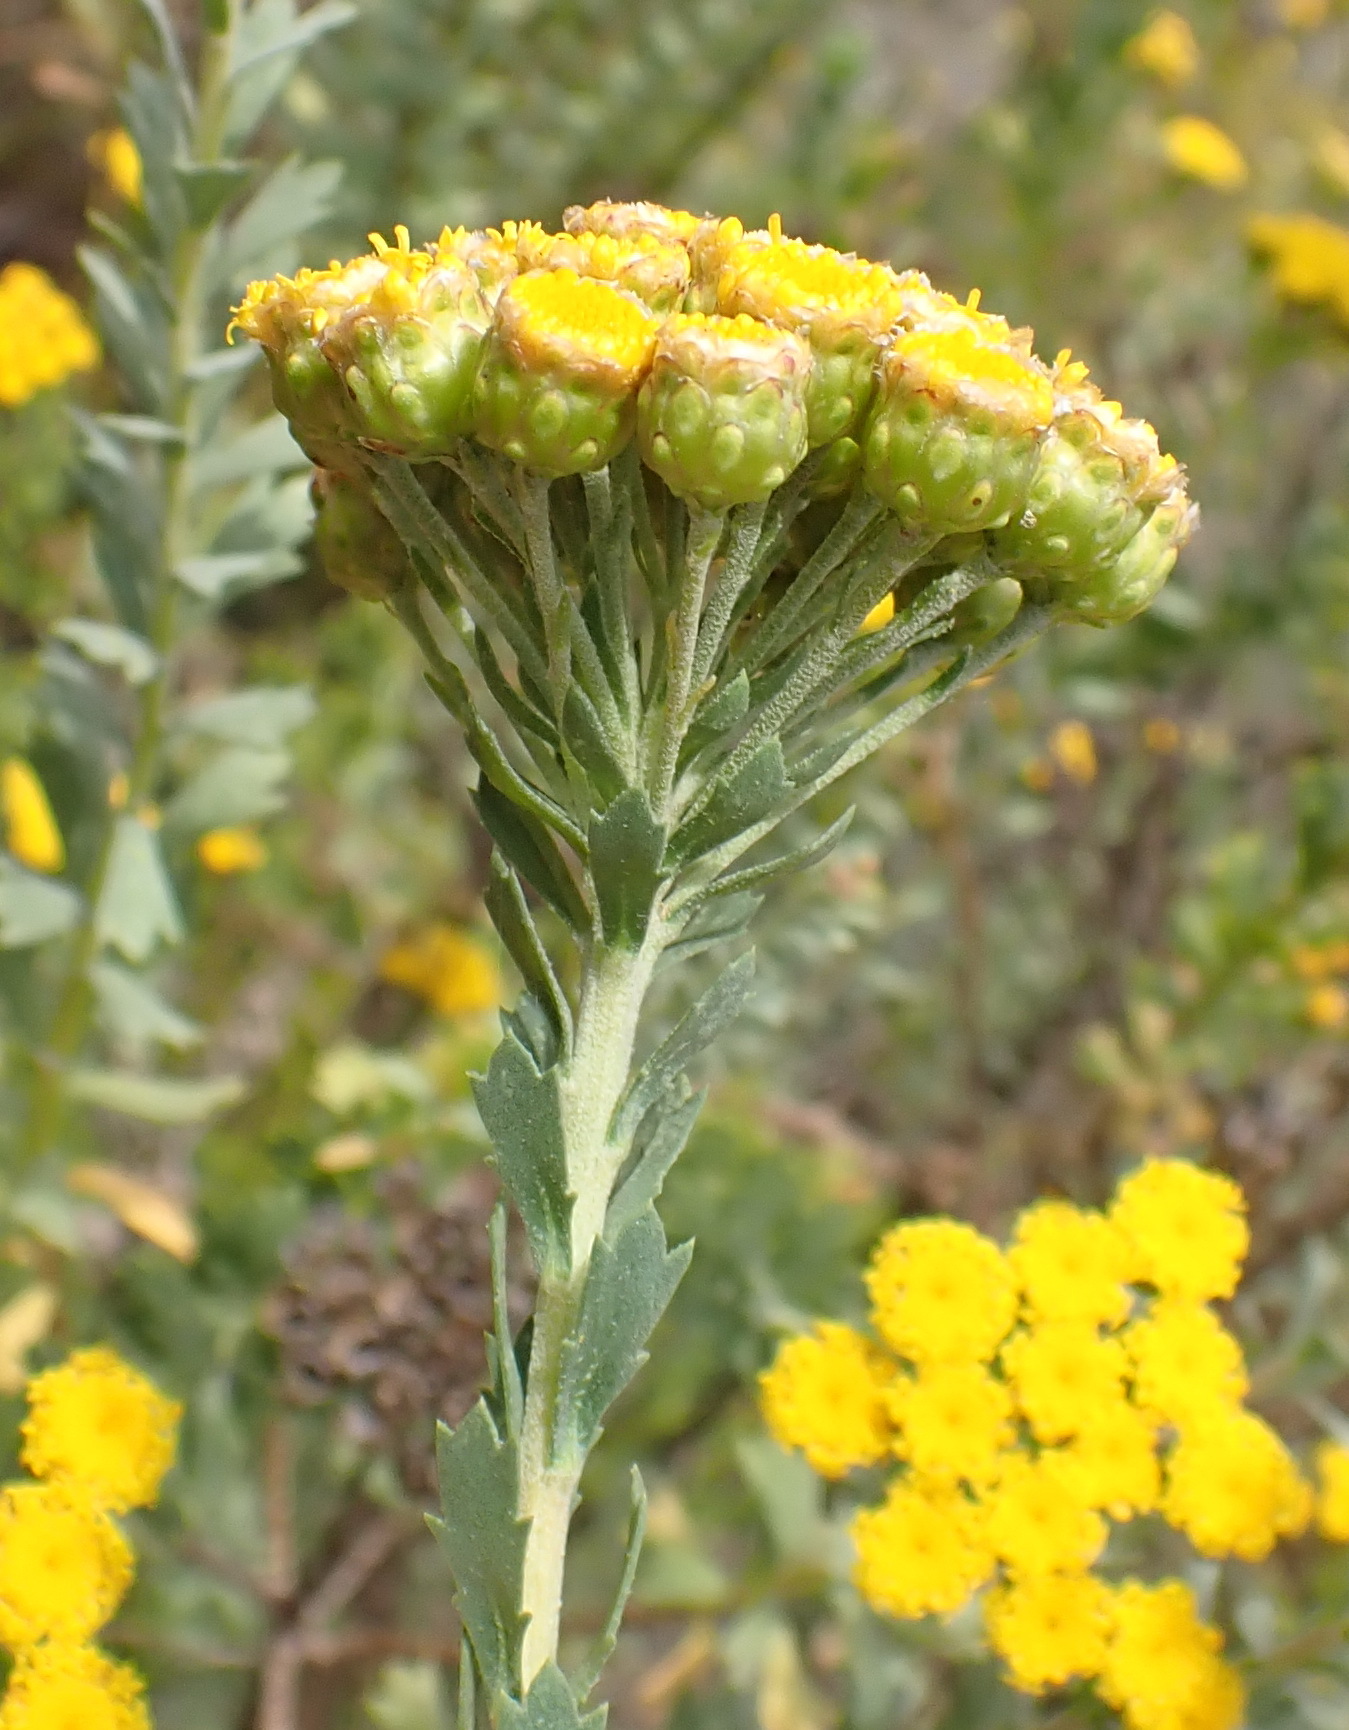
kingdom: Plantae
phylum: Tracheophyta
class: Magnoliopsida
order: Asterales
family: Asteraceae
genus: Athanasia
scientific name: Athanasia trifurcata
